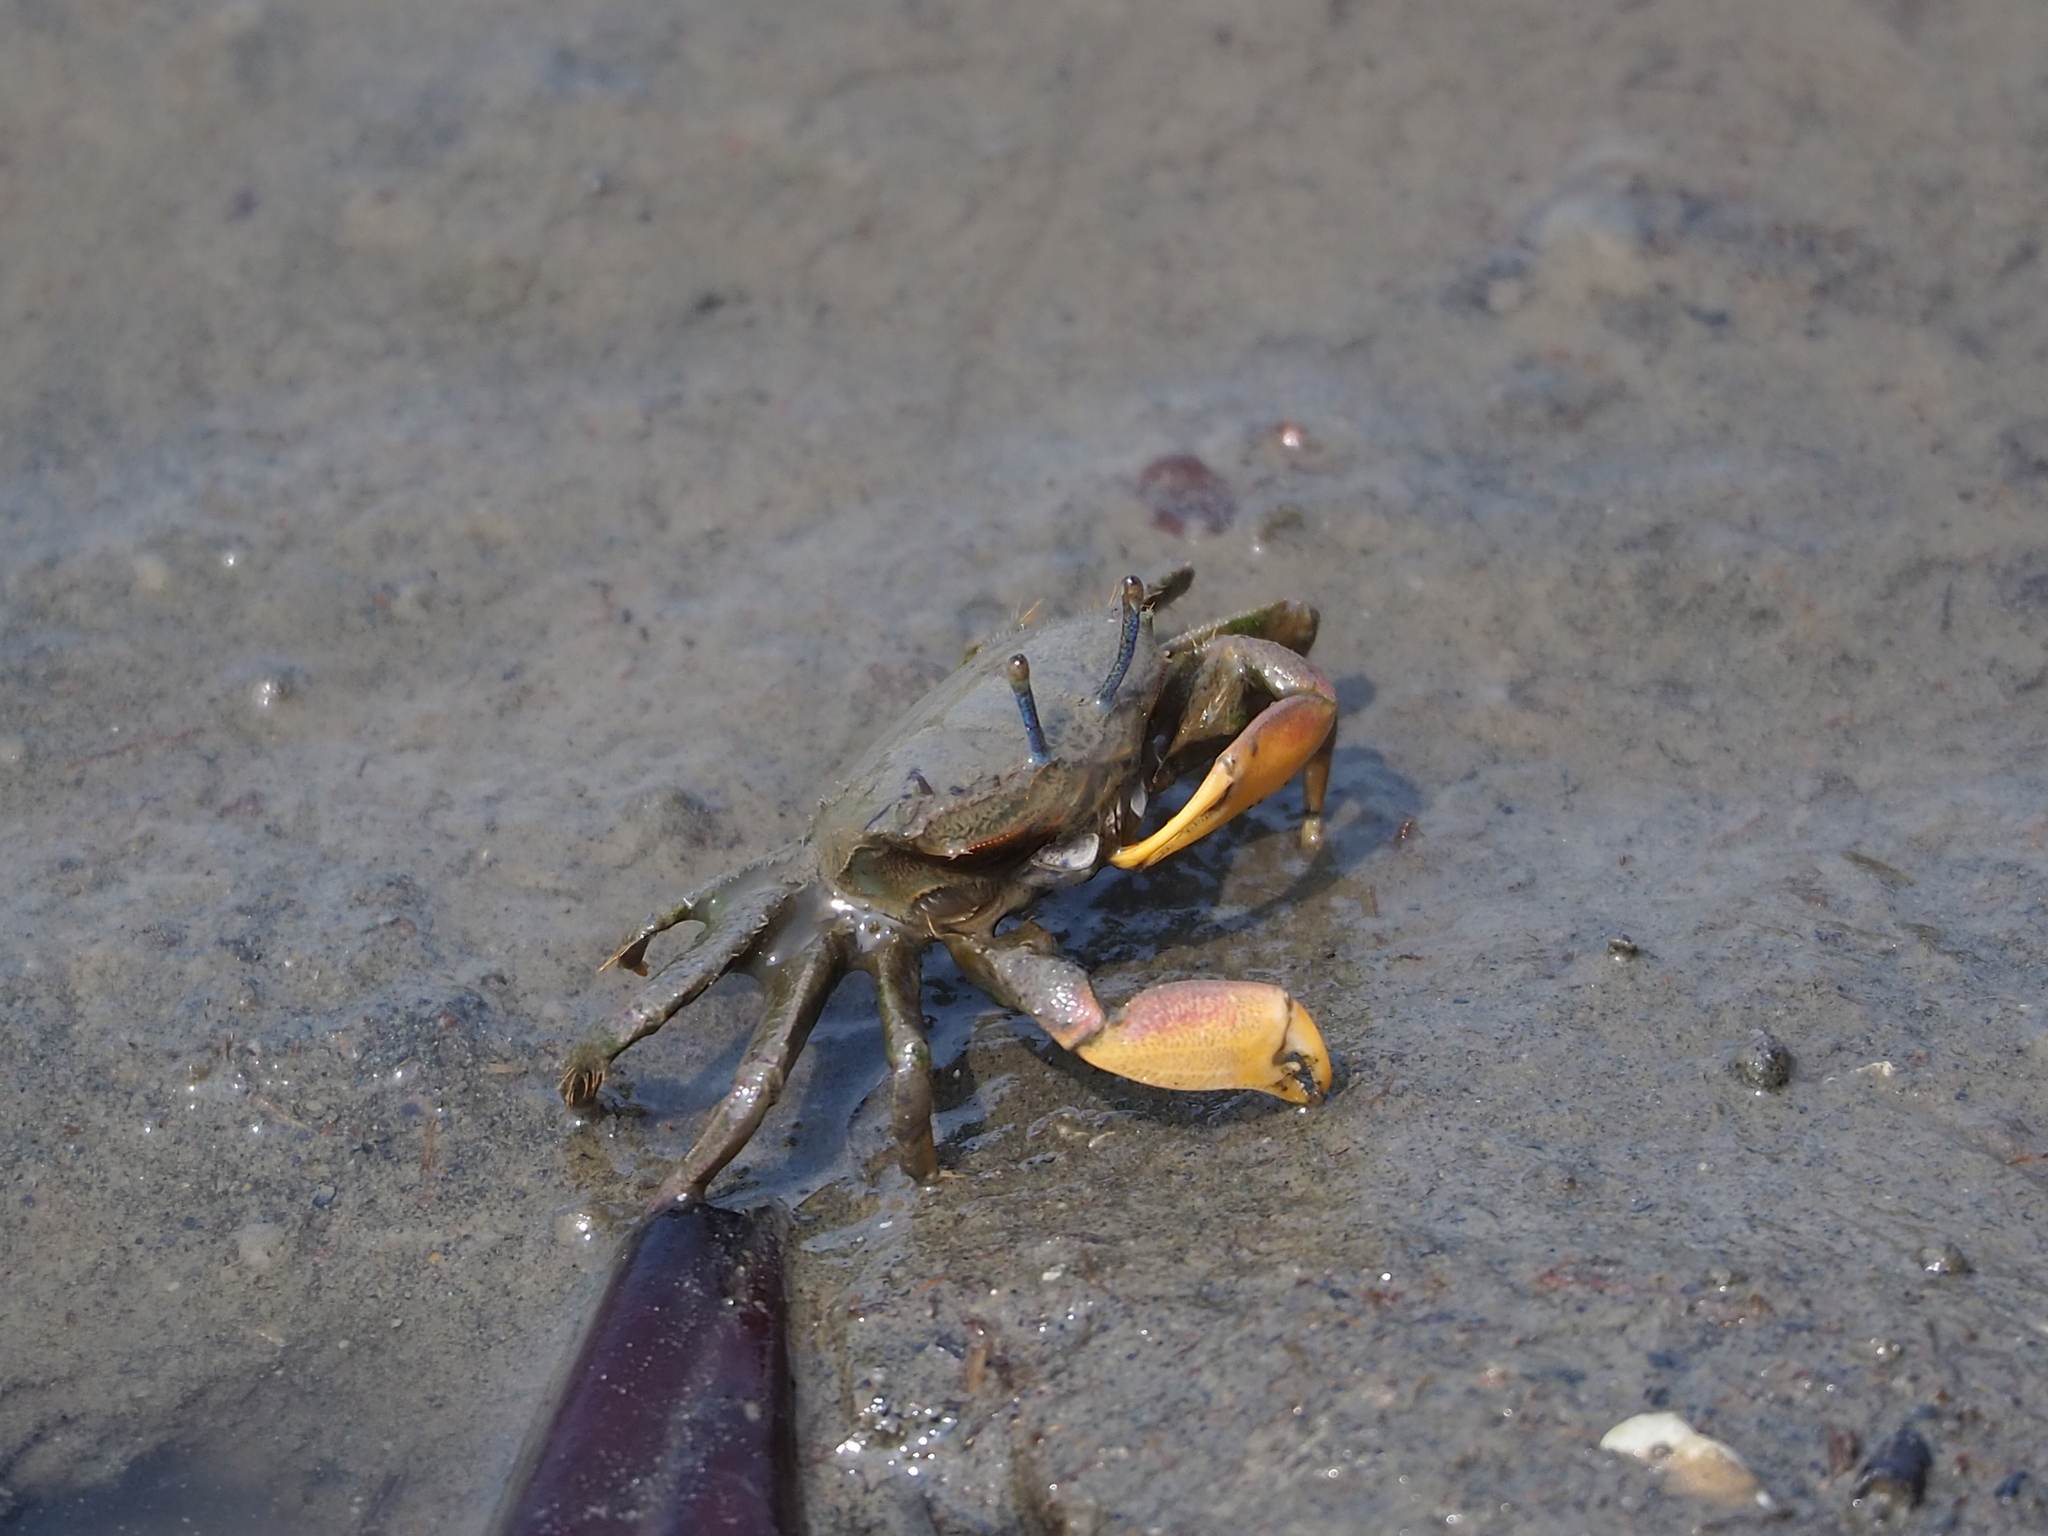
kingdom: Animalia
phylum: Arthropoda
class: Malacostraca
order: Decapoda
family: Macrophthalmidae
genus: Macrophthalmus
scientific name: Macrophthalmus banzai
